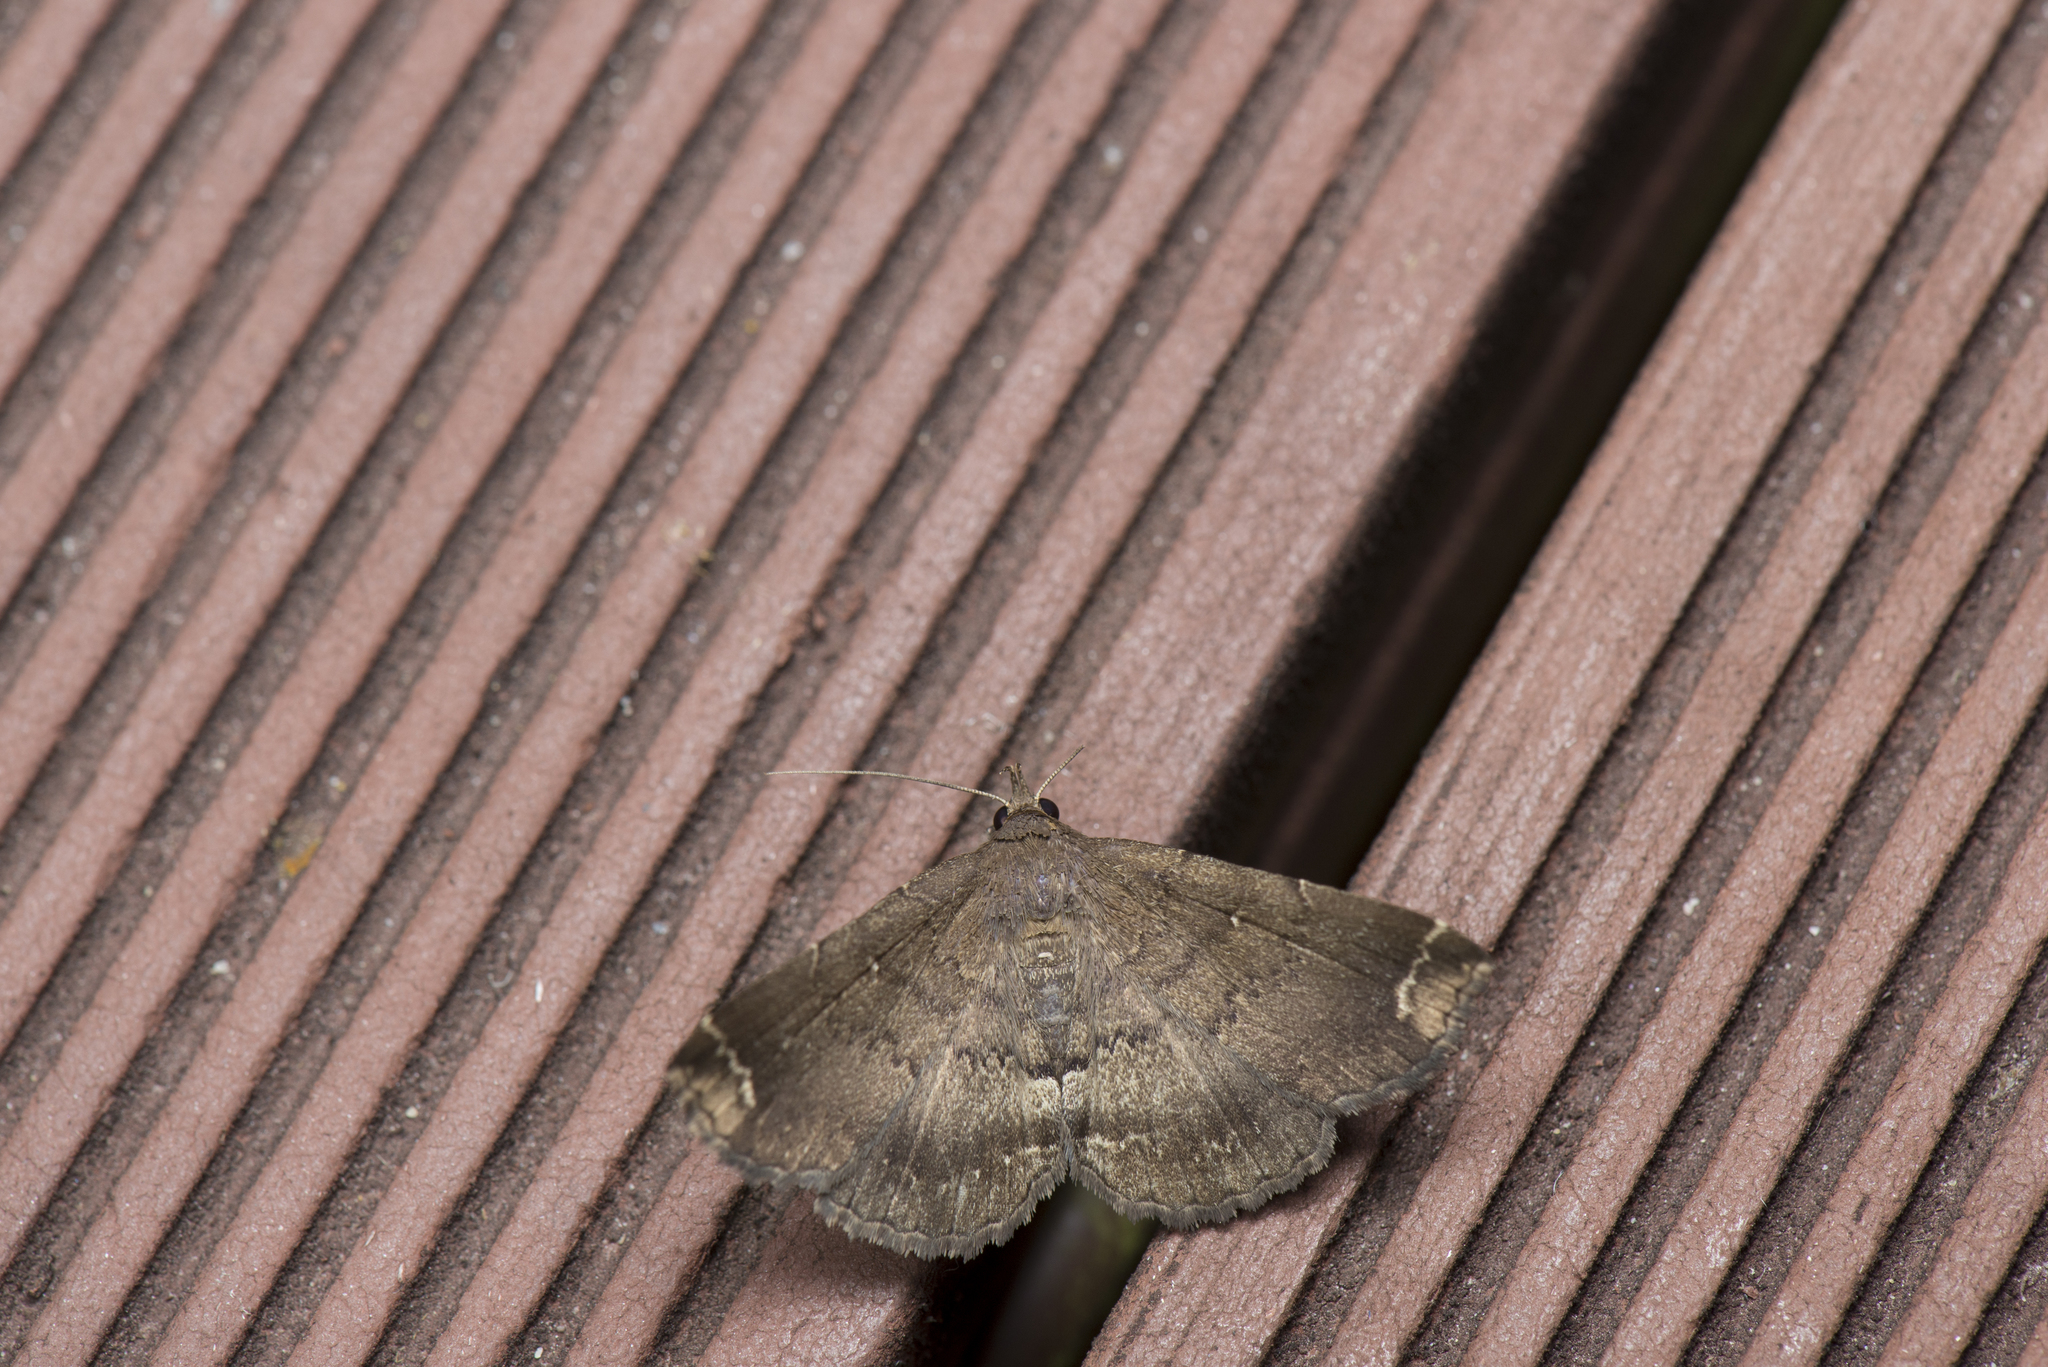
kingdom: Animalia
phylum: Arthropoda
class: Insecta
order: Lepidoptera
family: Erebidae
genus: Adrapsa
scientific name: Adrapsa quadrilinealis
